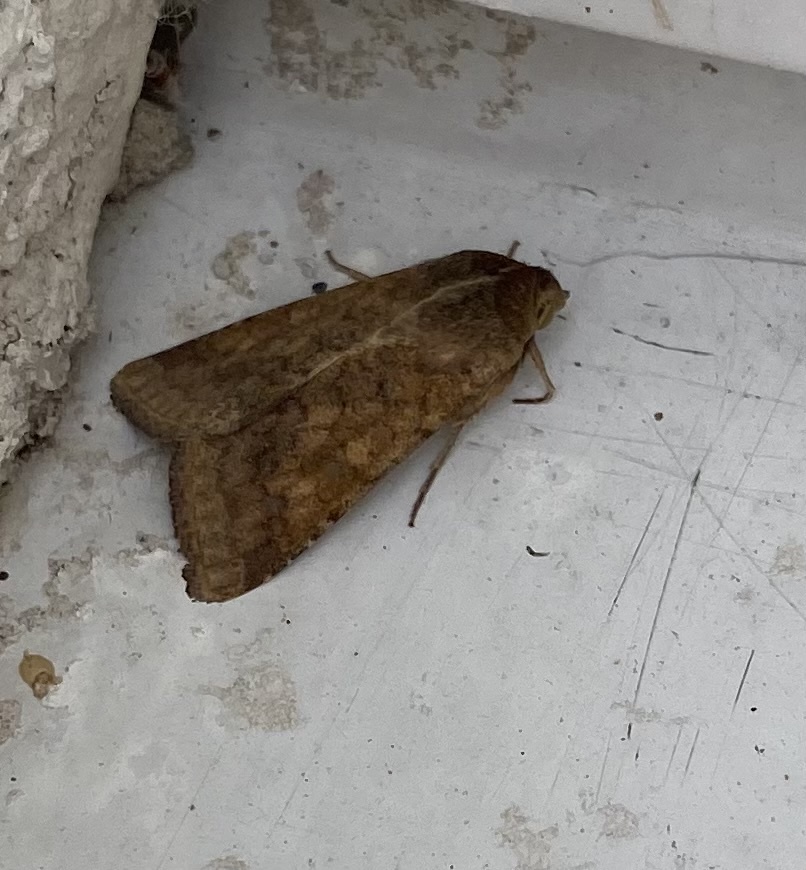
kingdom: Animalia
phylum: Arthropoda
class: Insecta
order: Lepidoptera
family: Noctuidae
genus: Helicoverpa
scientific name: Helicoverpa armigera
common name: Cotton bollworm
